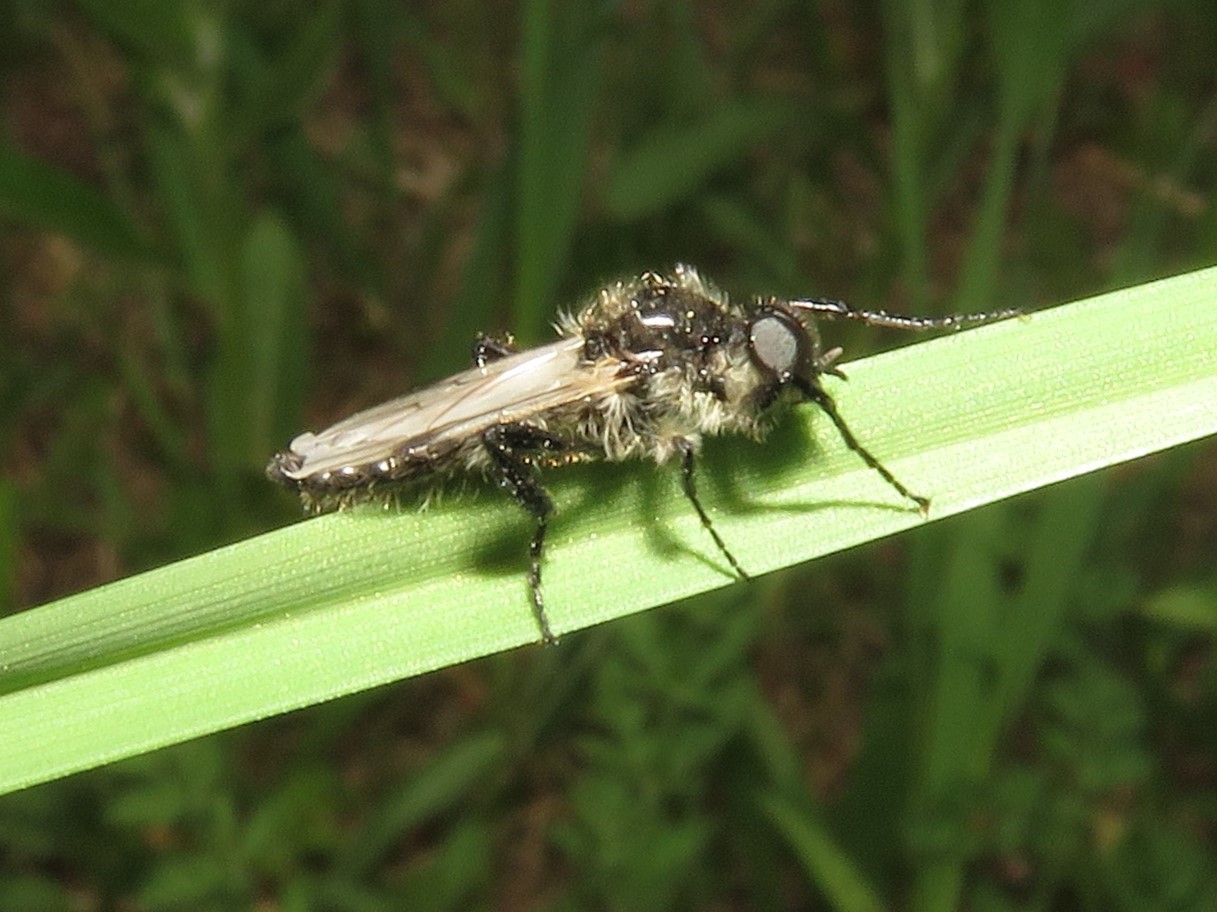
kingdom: Animalia
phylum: Arthropoda
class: Insecta
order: Diptera
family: Bibionidae
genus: Bibio
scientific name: Bibio albipennis
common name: White-winged march fly
